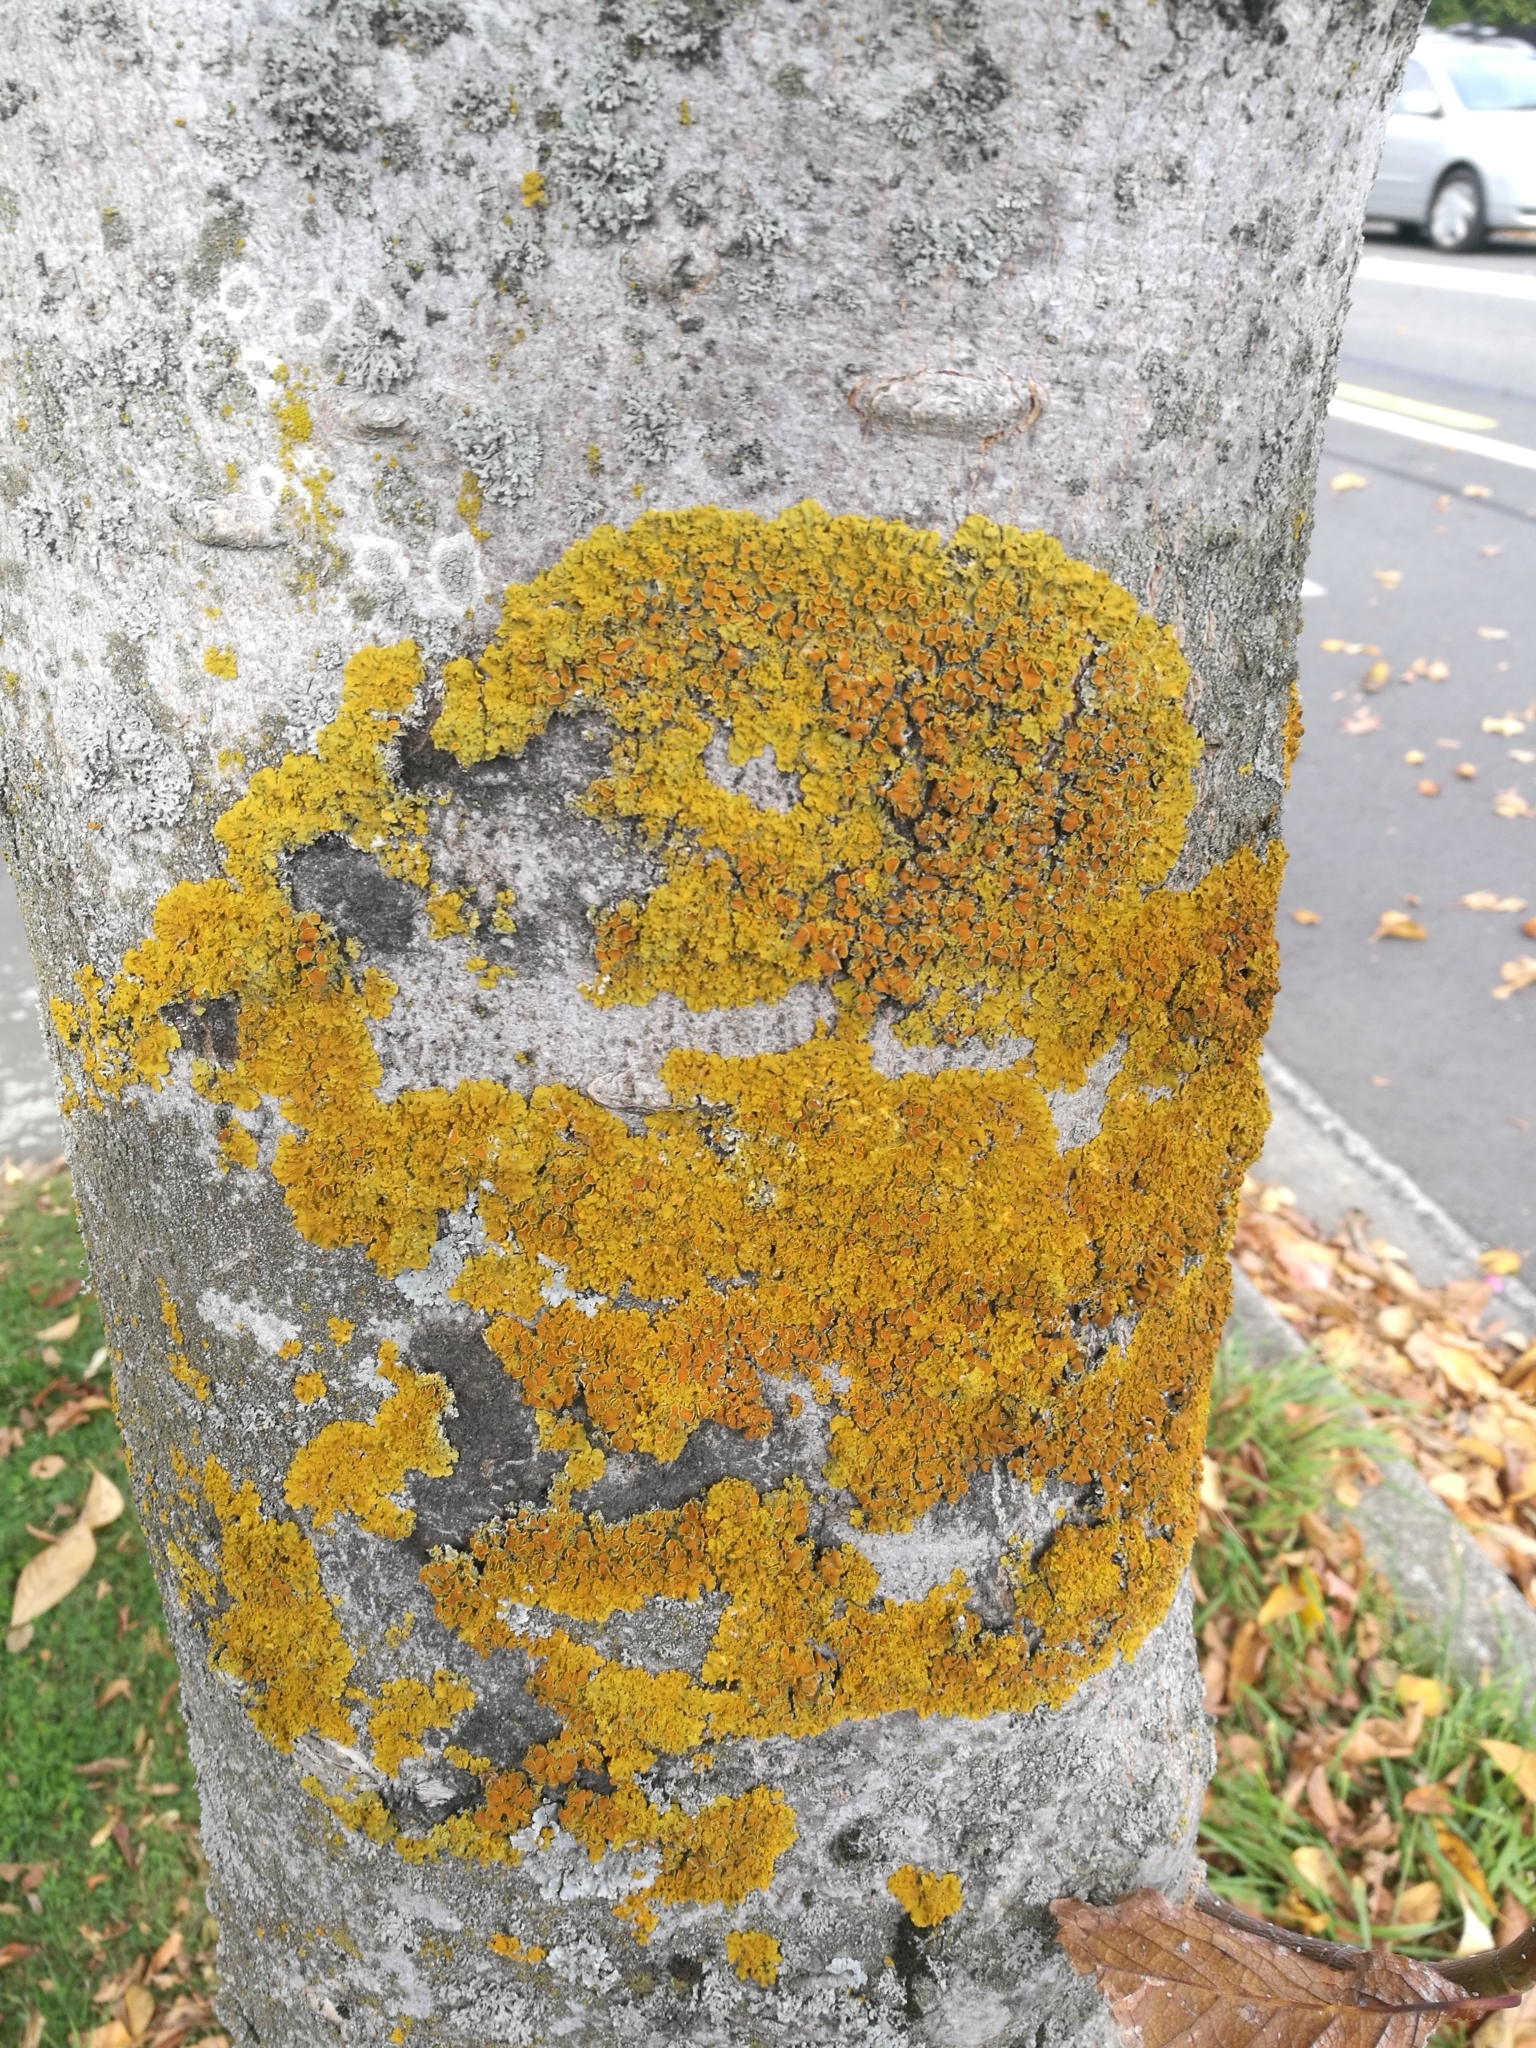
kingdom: Fungi
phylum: Ascomycota
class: Lecanoromycetes
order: Teloschistales
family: Teloschistaceae
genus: Xanthoria
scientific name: Xanthoria parietina
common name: Common orange lichen
